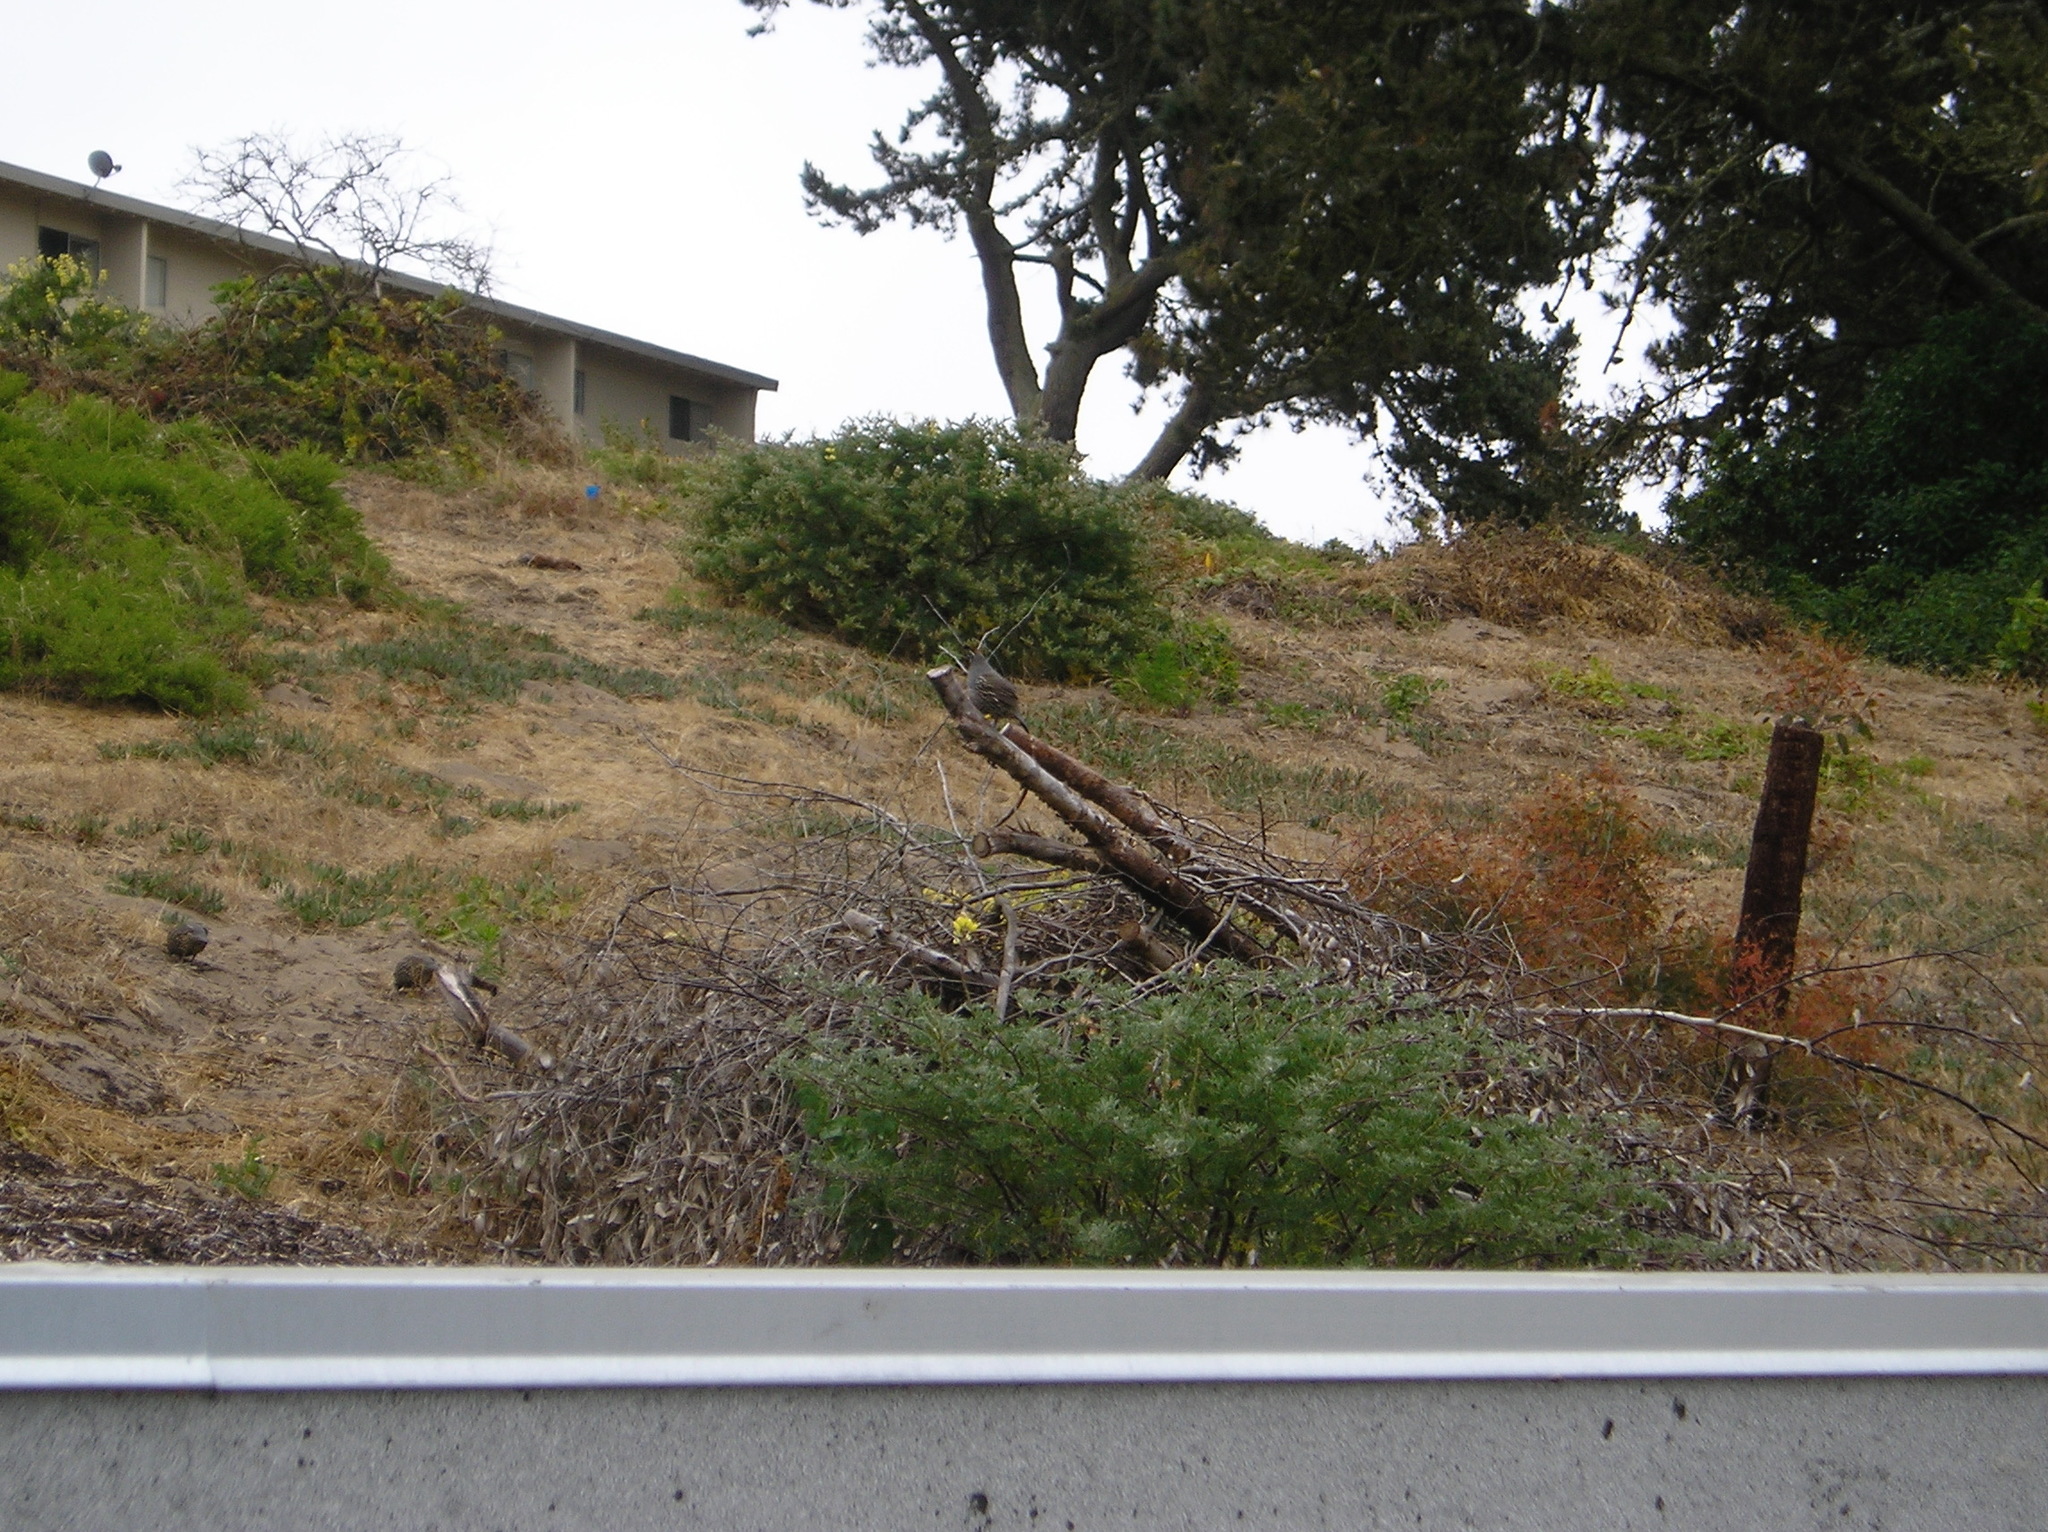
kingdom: Animalia
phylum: Chordata
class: Aves
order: Galliformes
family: Odontophoridae
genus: Callipepla
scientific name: Callipepla californica
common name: California quail
